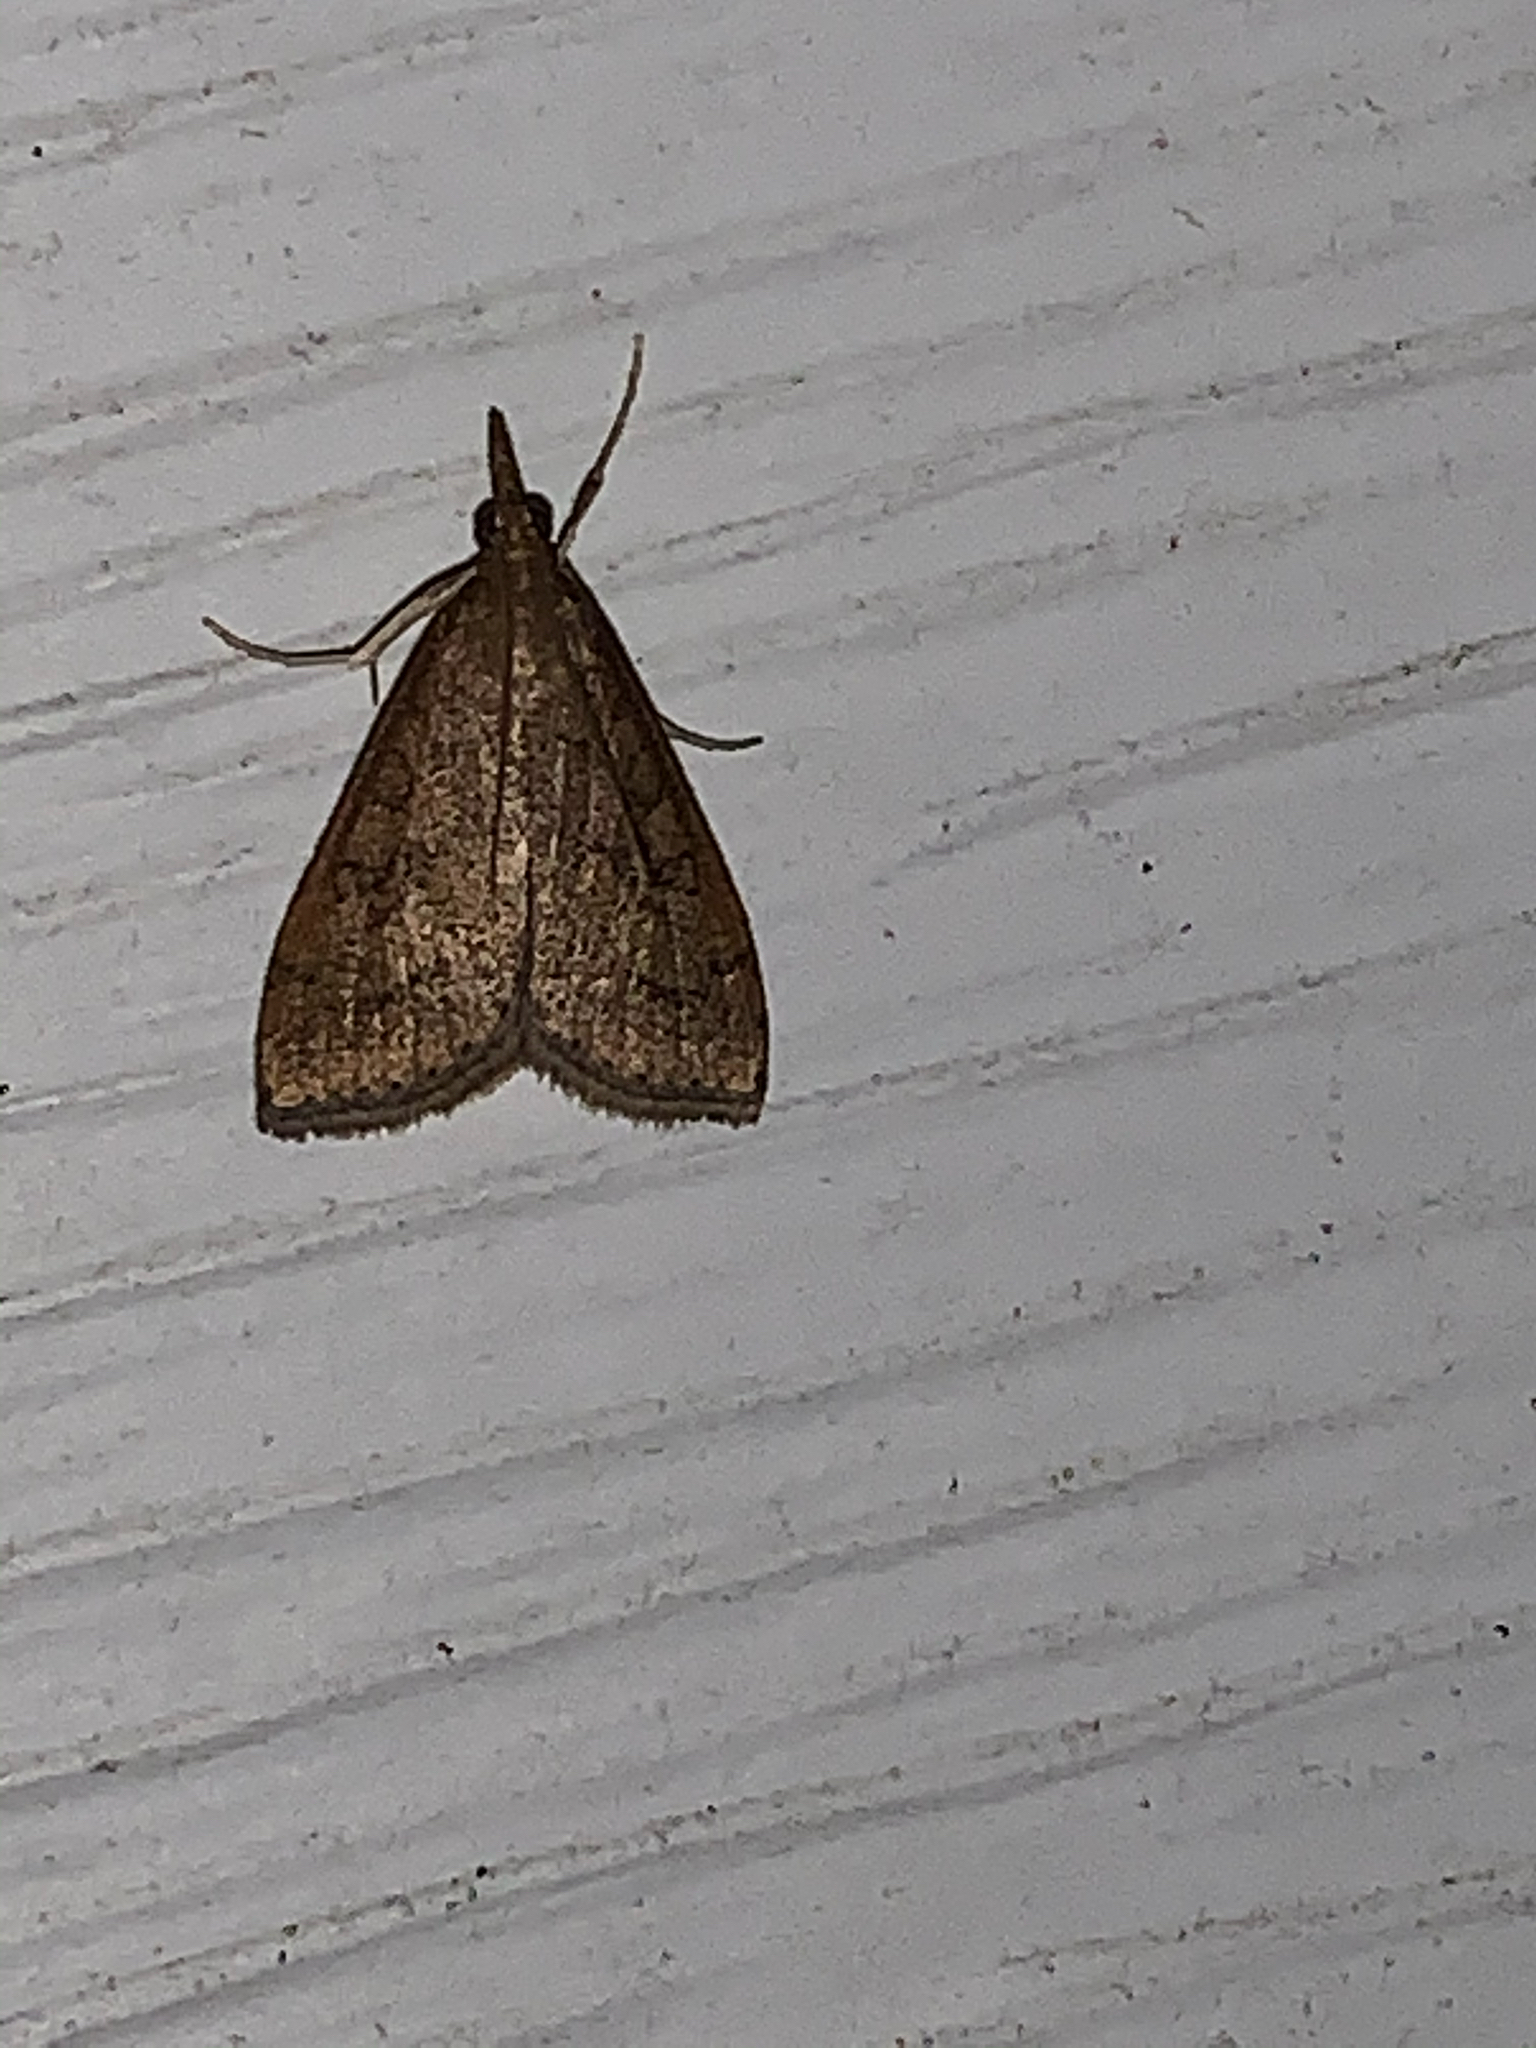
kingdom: Animalia
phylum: Arthropoda
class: Insecta
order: Lepidoptera
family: Crambidae
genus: Udea
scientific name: Udea rubigalis
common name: Celery leaftier moth
